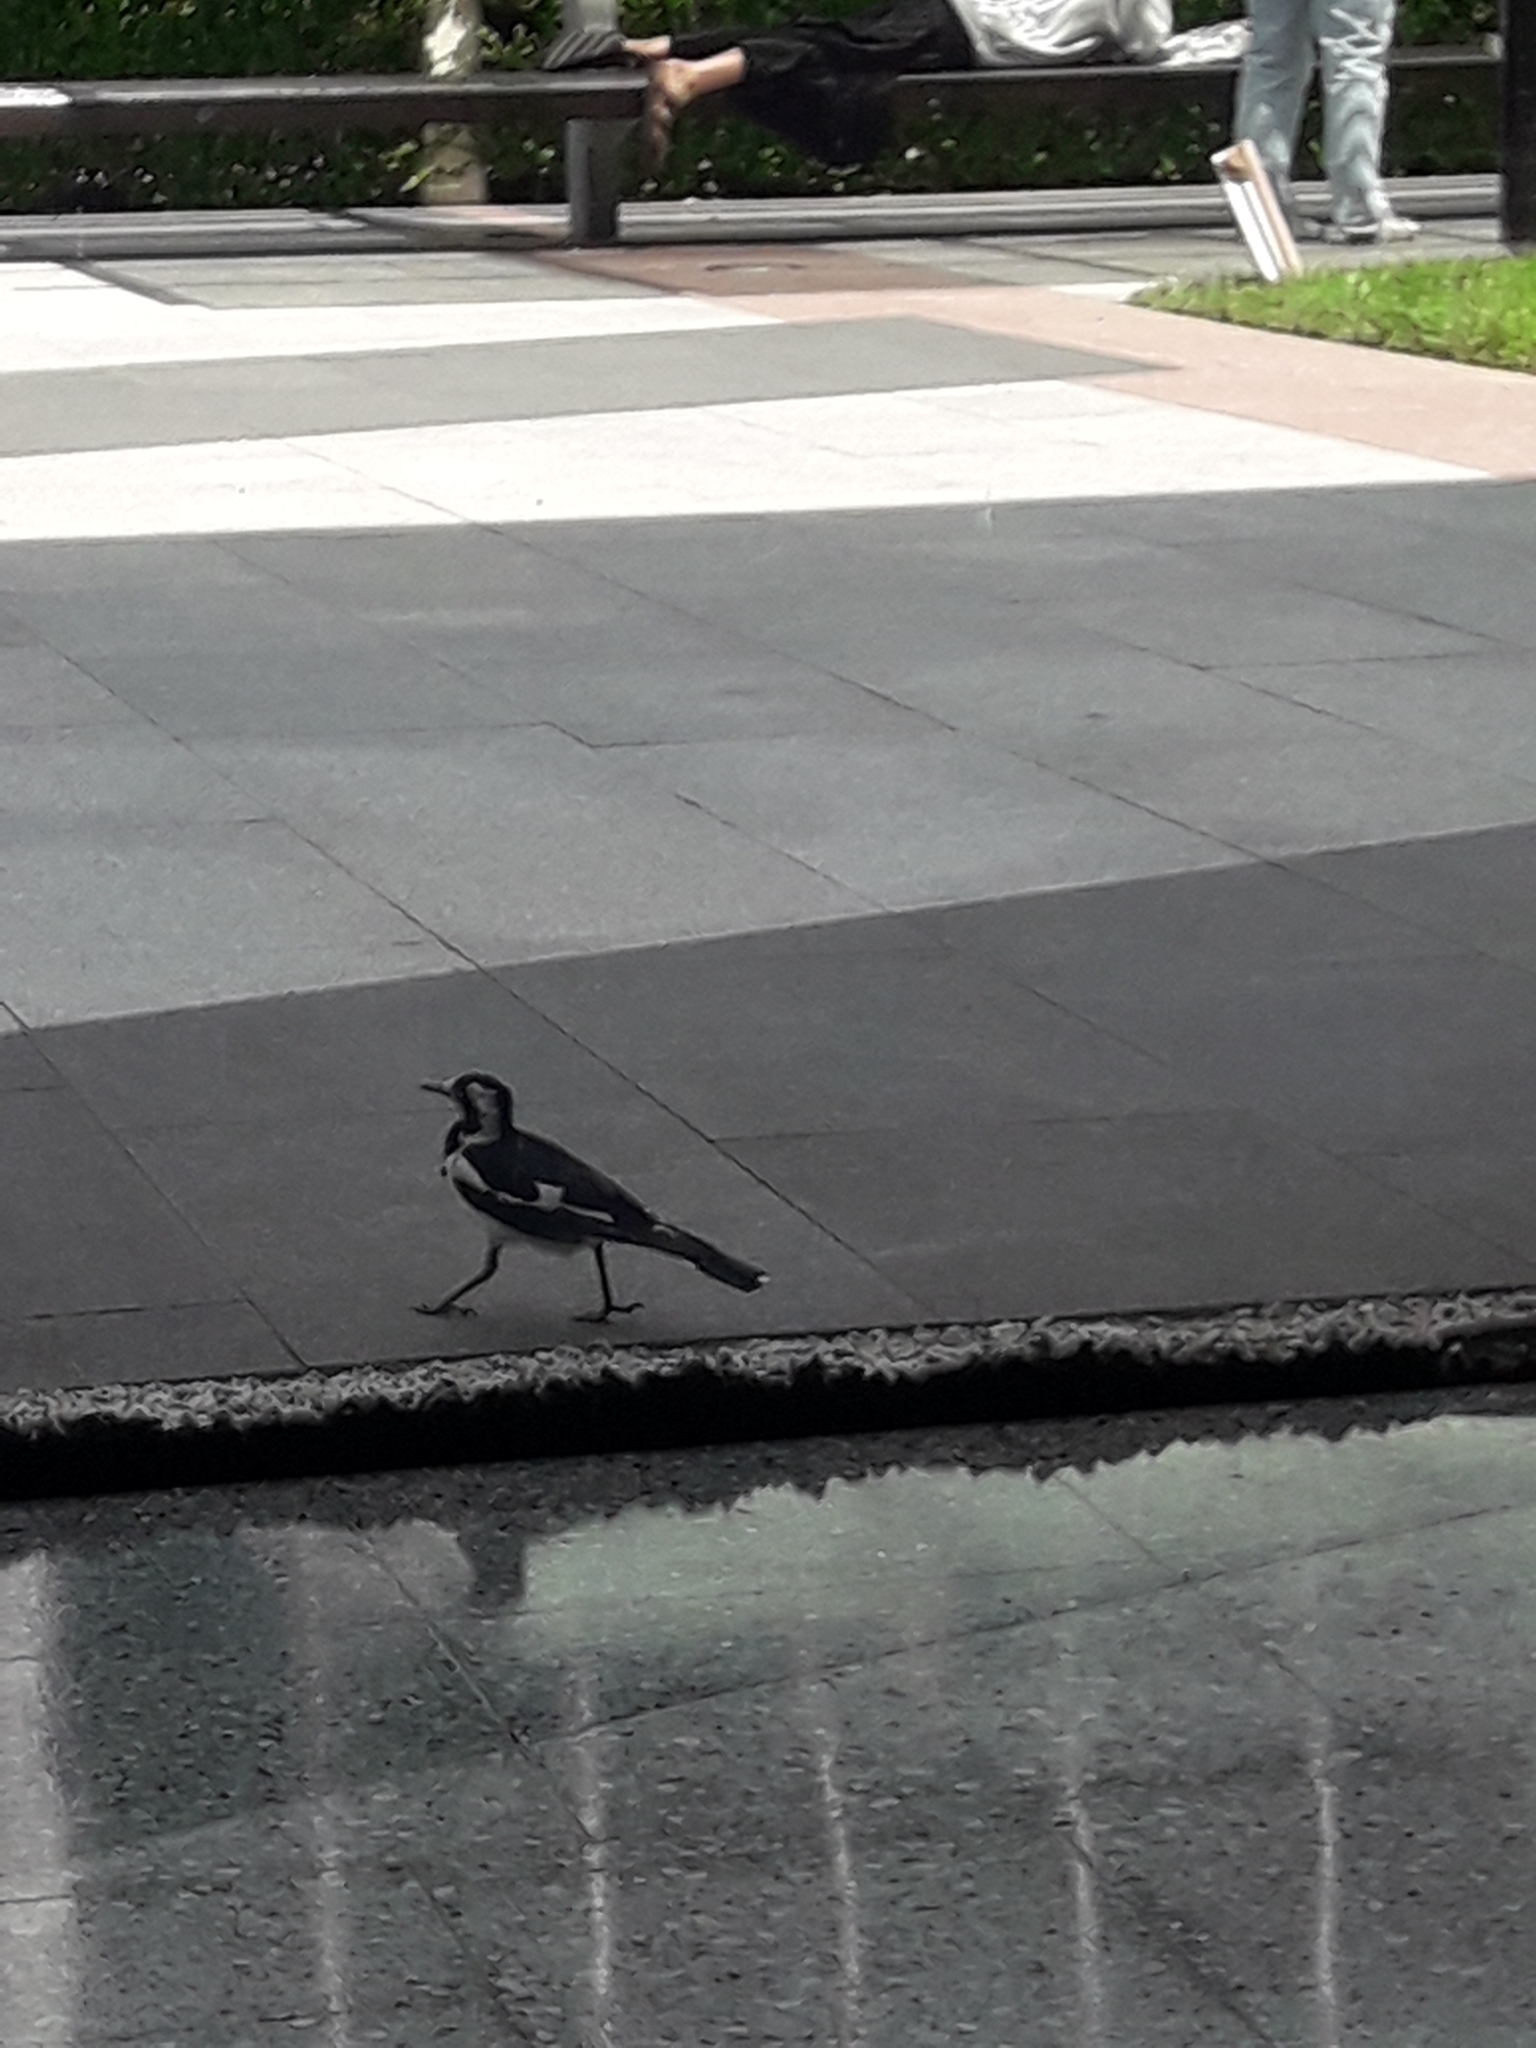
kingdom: Animalia
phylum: Chordata
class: Aves
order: Passeriformes
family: Monarchidae
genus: Grallina
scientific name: Grallina cyanoleuca
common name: Magpie-lark
